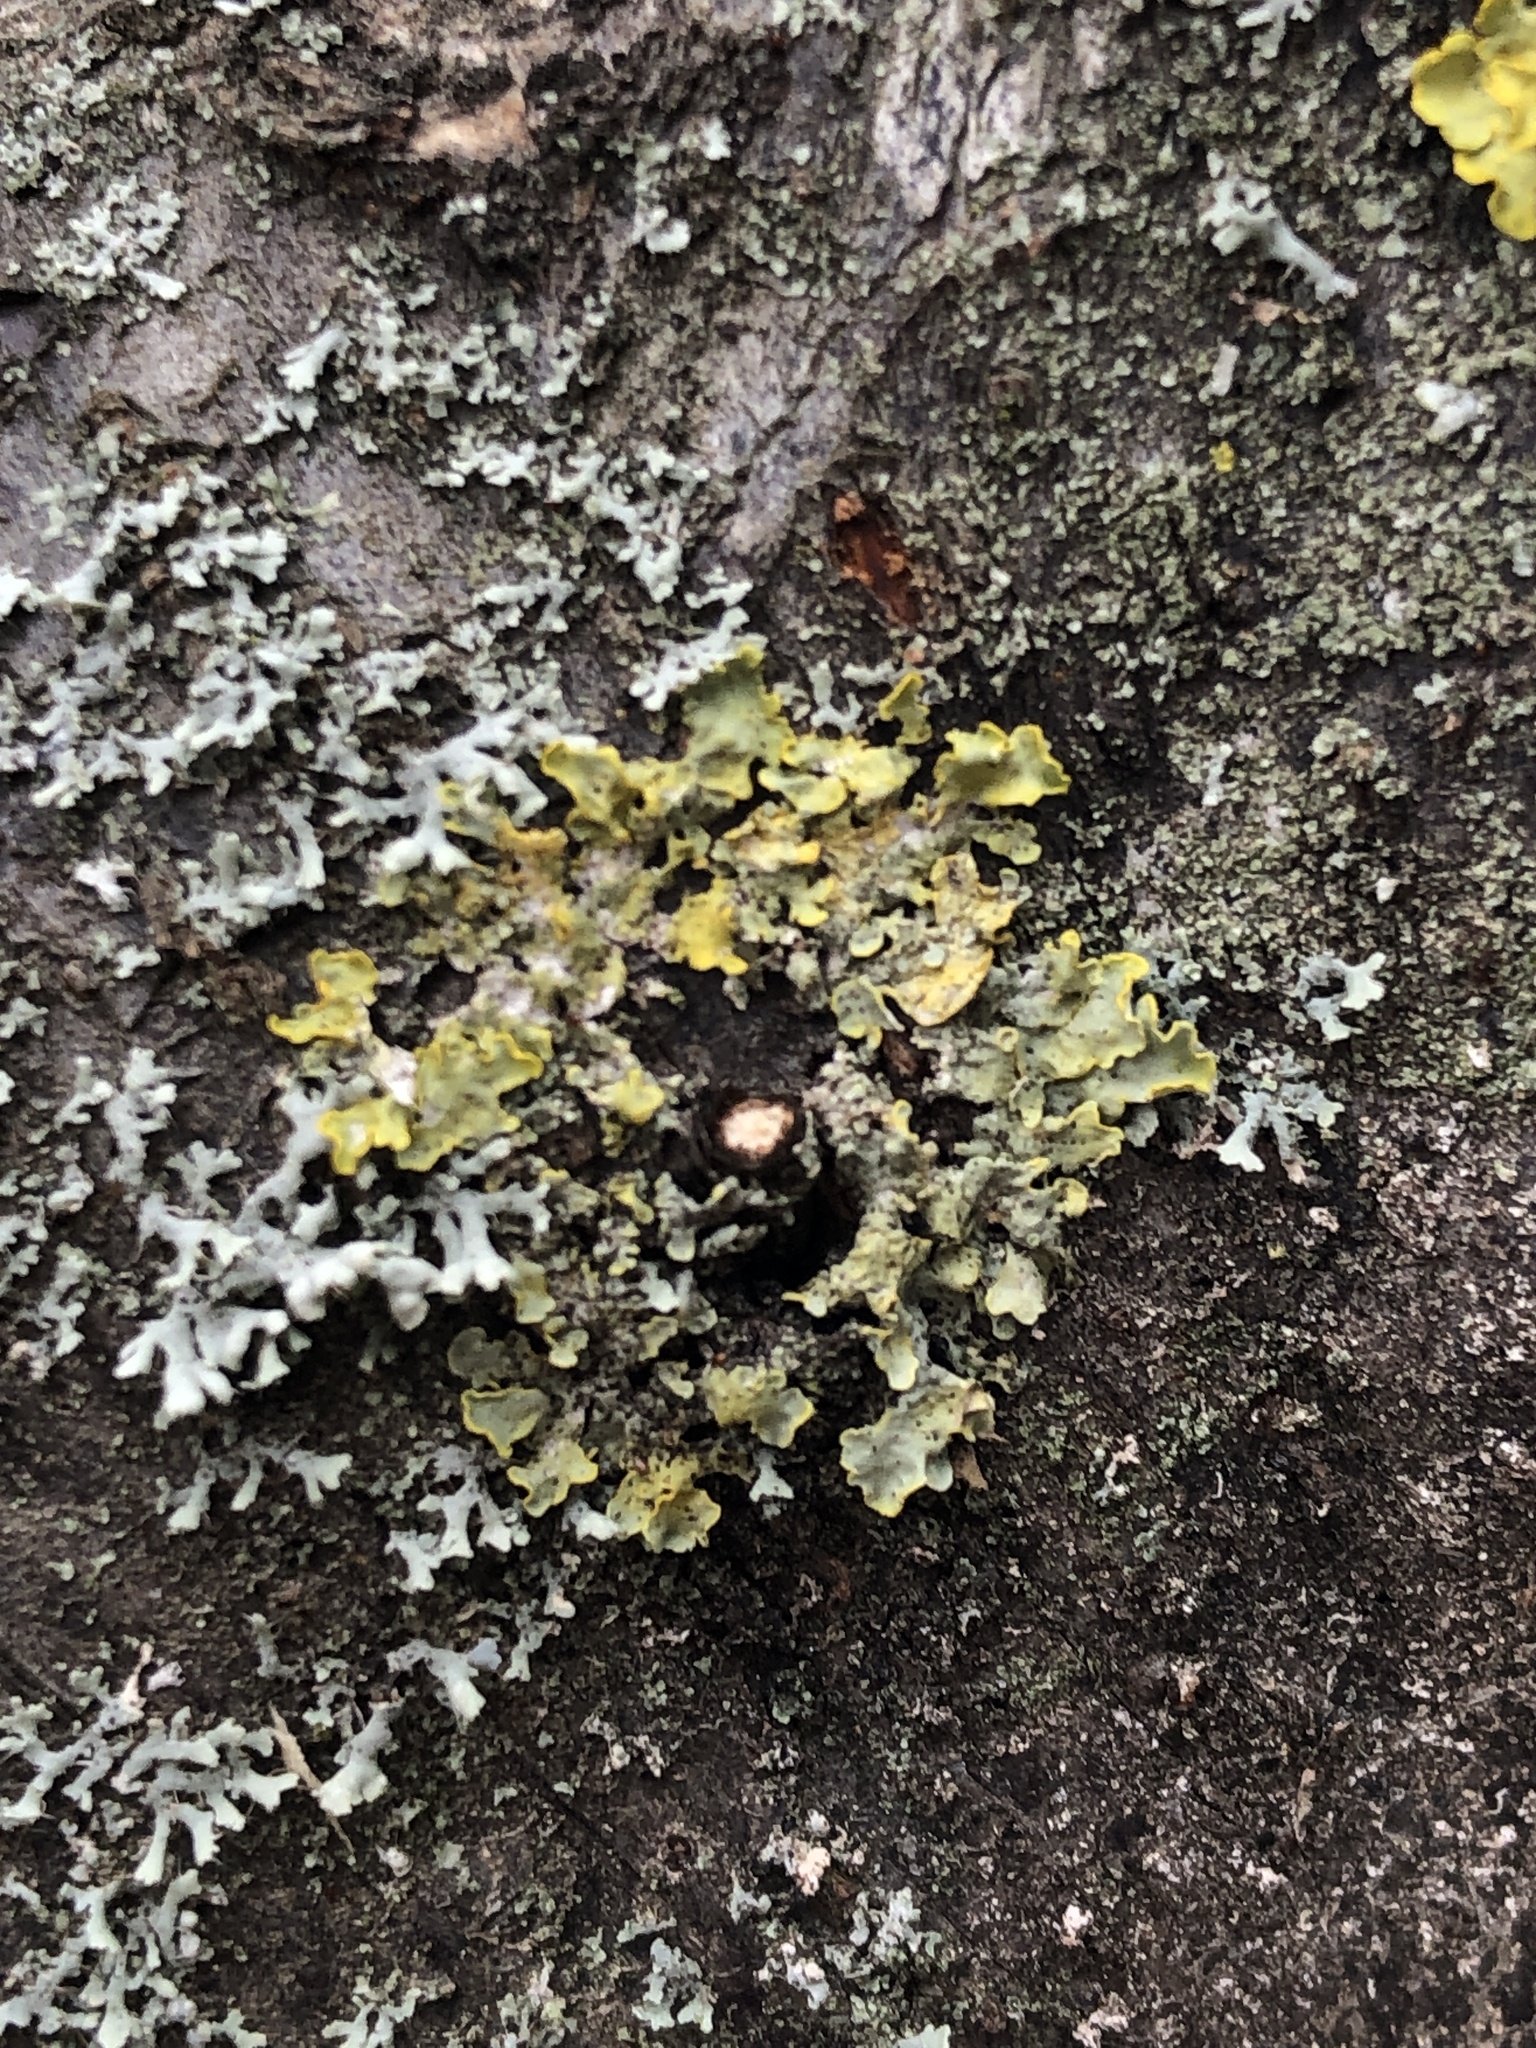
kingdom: Fungi
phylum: Ascomycota
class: Lecanoromycetes
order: Peltigerales
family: Lobariaceae
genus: Pseudocyphellaria
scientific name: Pseudocyphellaria aurata
